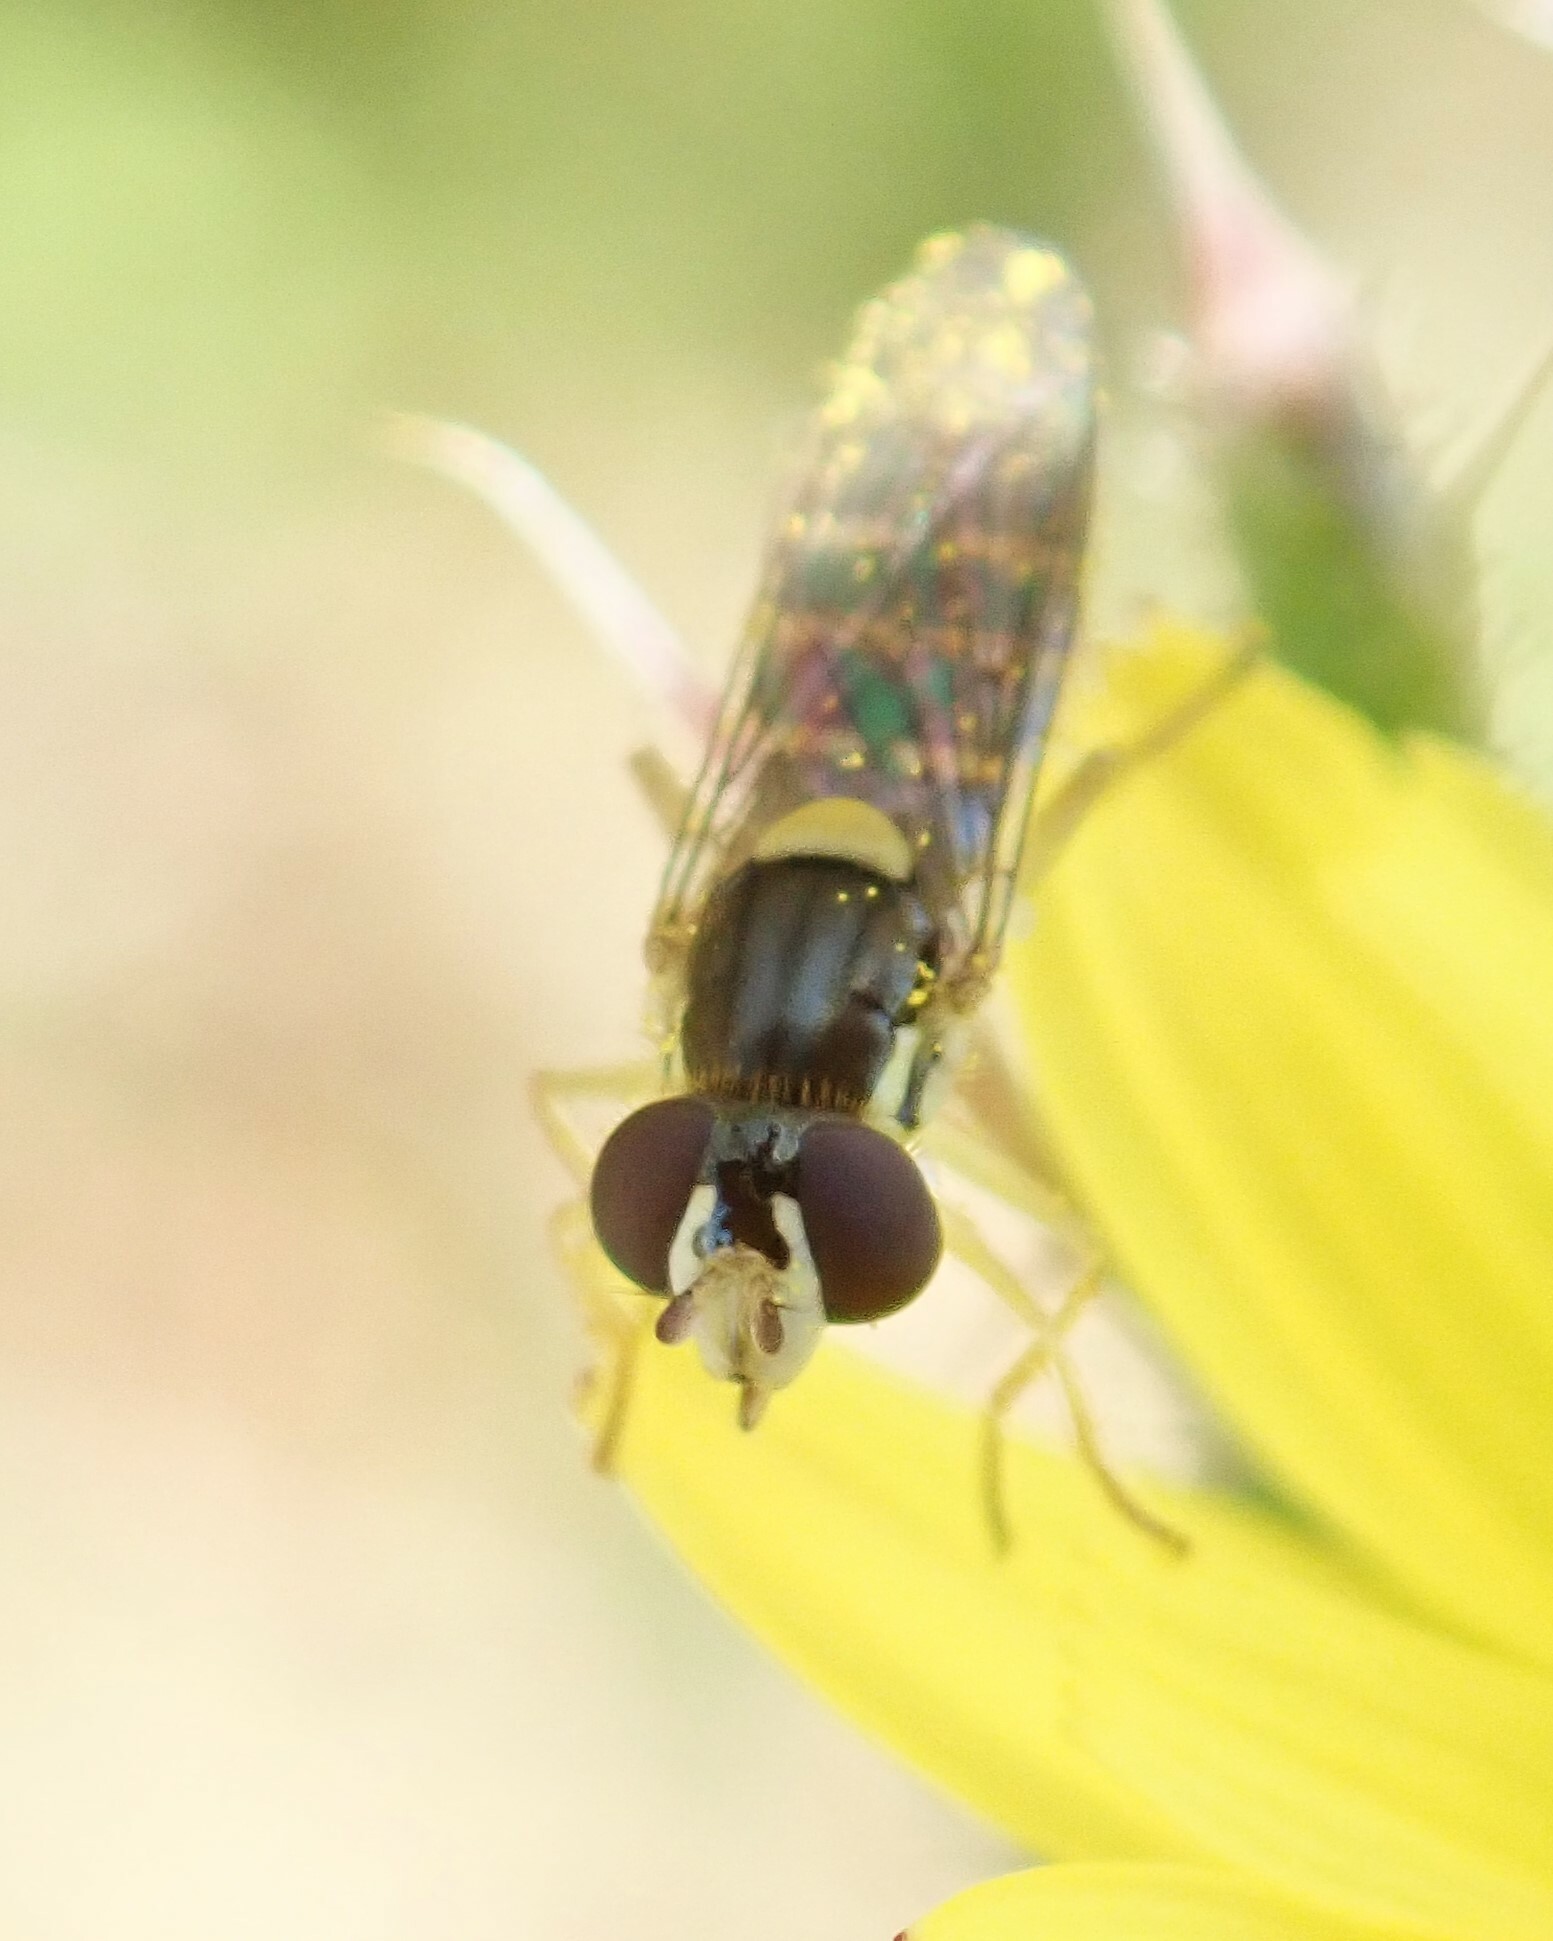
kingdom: Animalia
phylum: Arthropoda
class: Insecta
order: Diptera
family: Syrphidae
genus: Sphaerophoria
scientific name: Sphaerophoria sulphuripes
